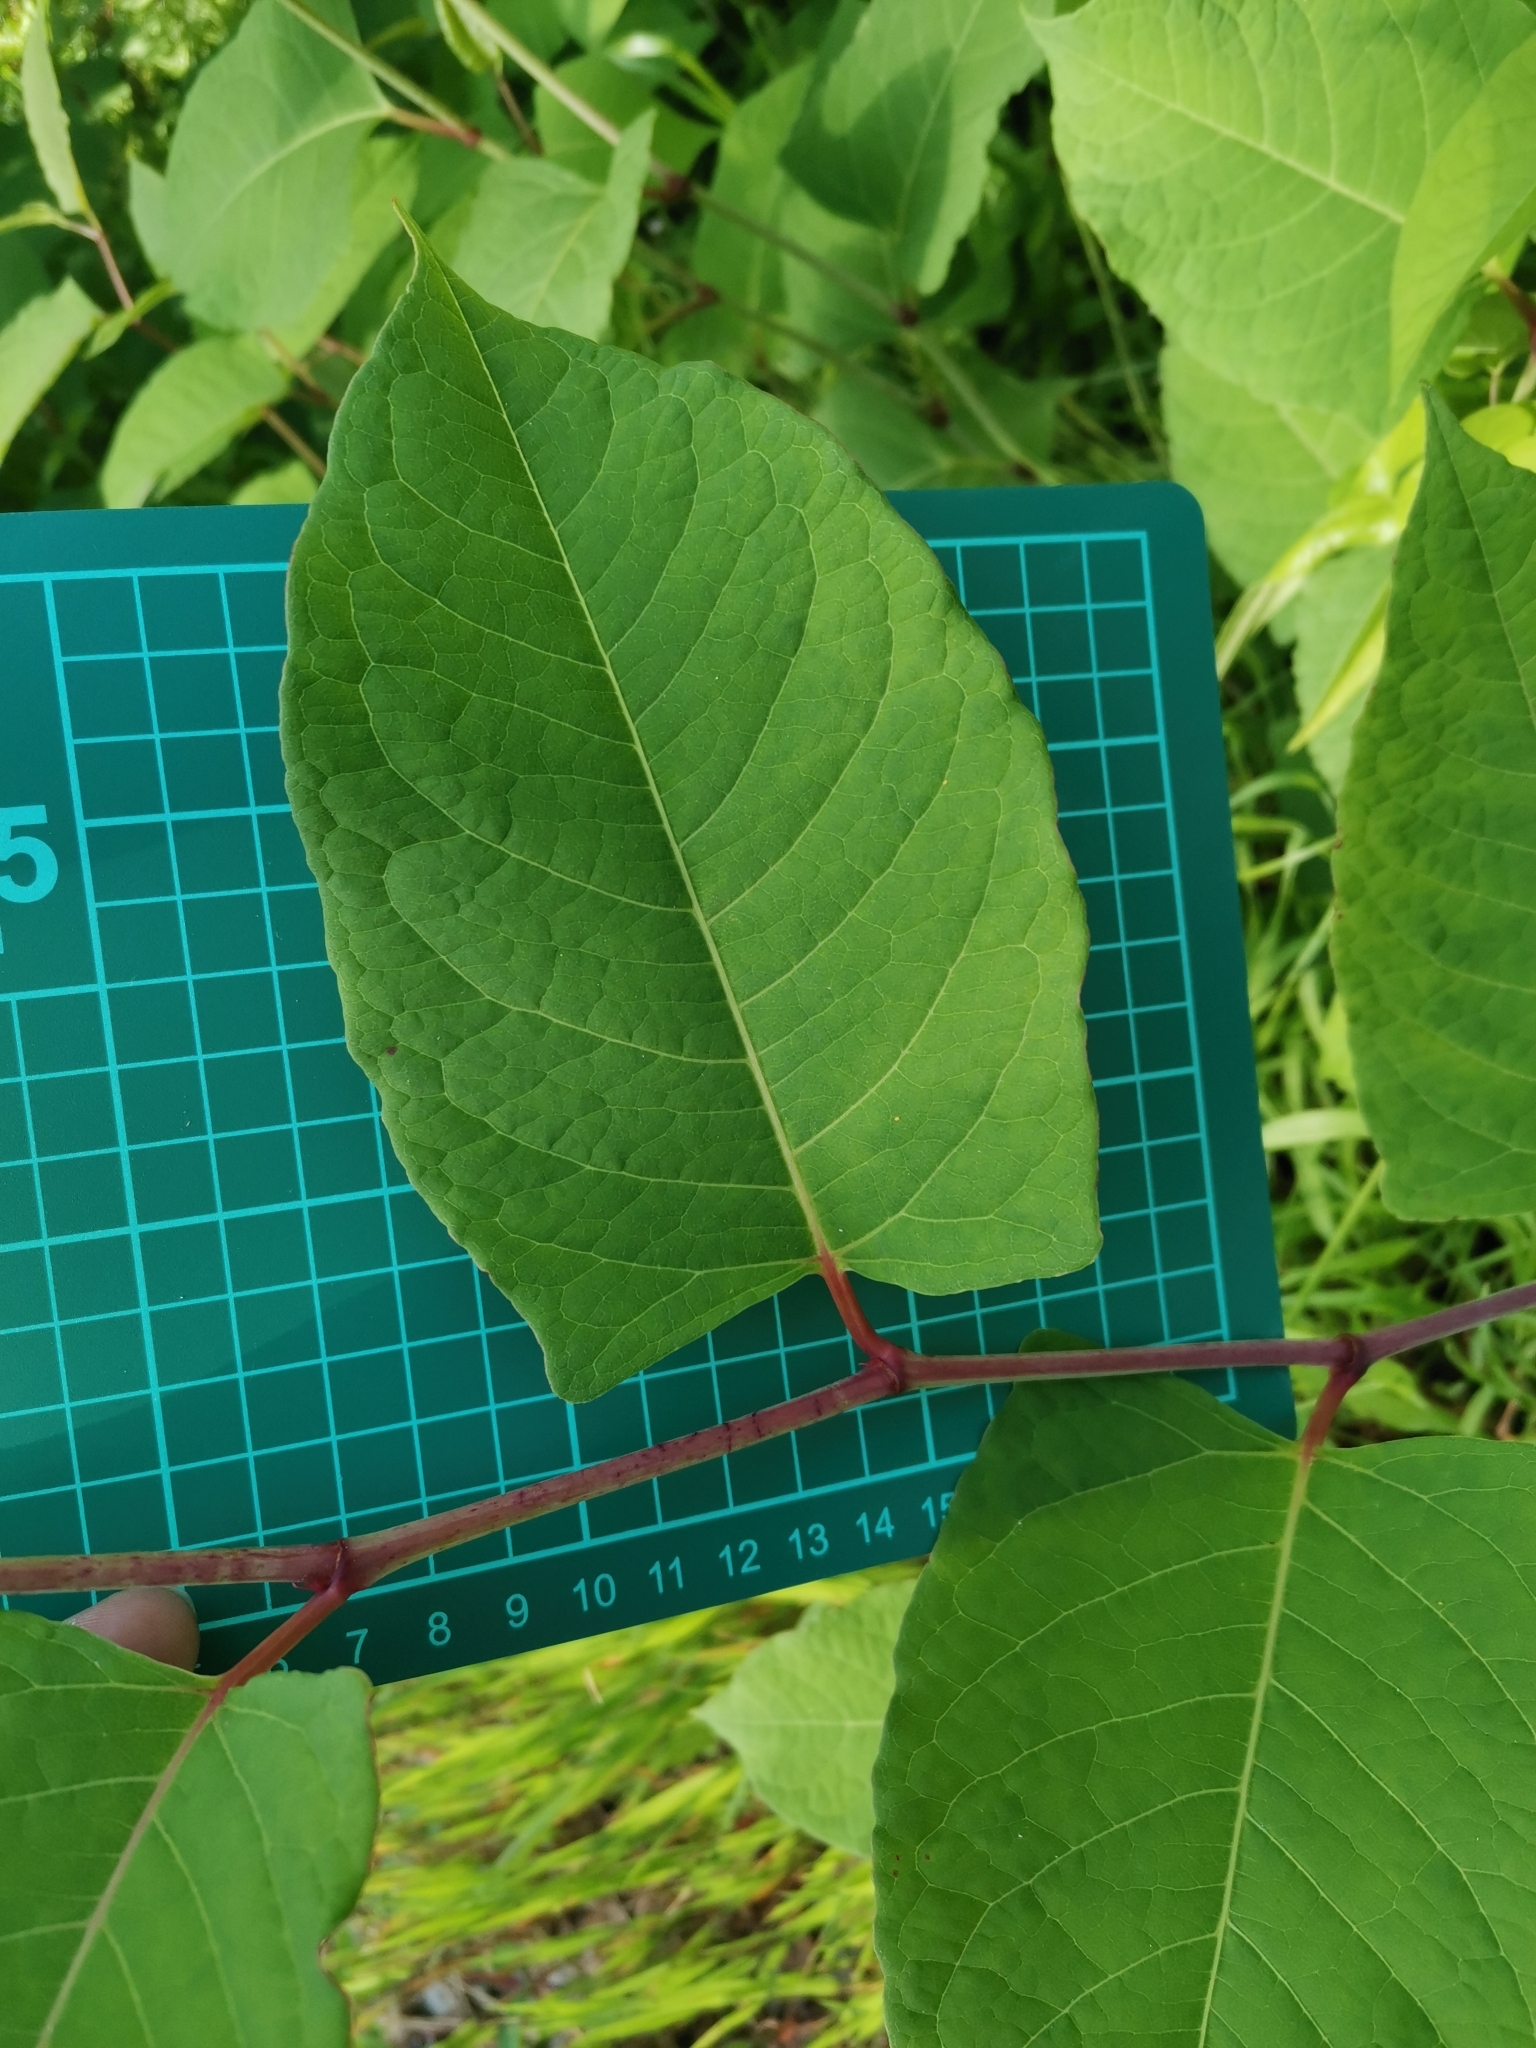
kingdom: Plantae
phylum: Tracheophyta
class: Magnoliopsida
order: Caryophyllales
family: Polygonaceae
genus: Reynoutria
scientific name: Reynoutria japonica
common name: Japanese knotweed
